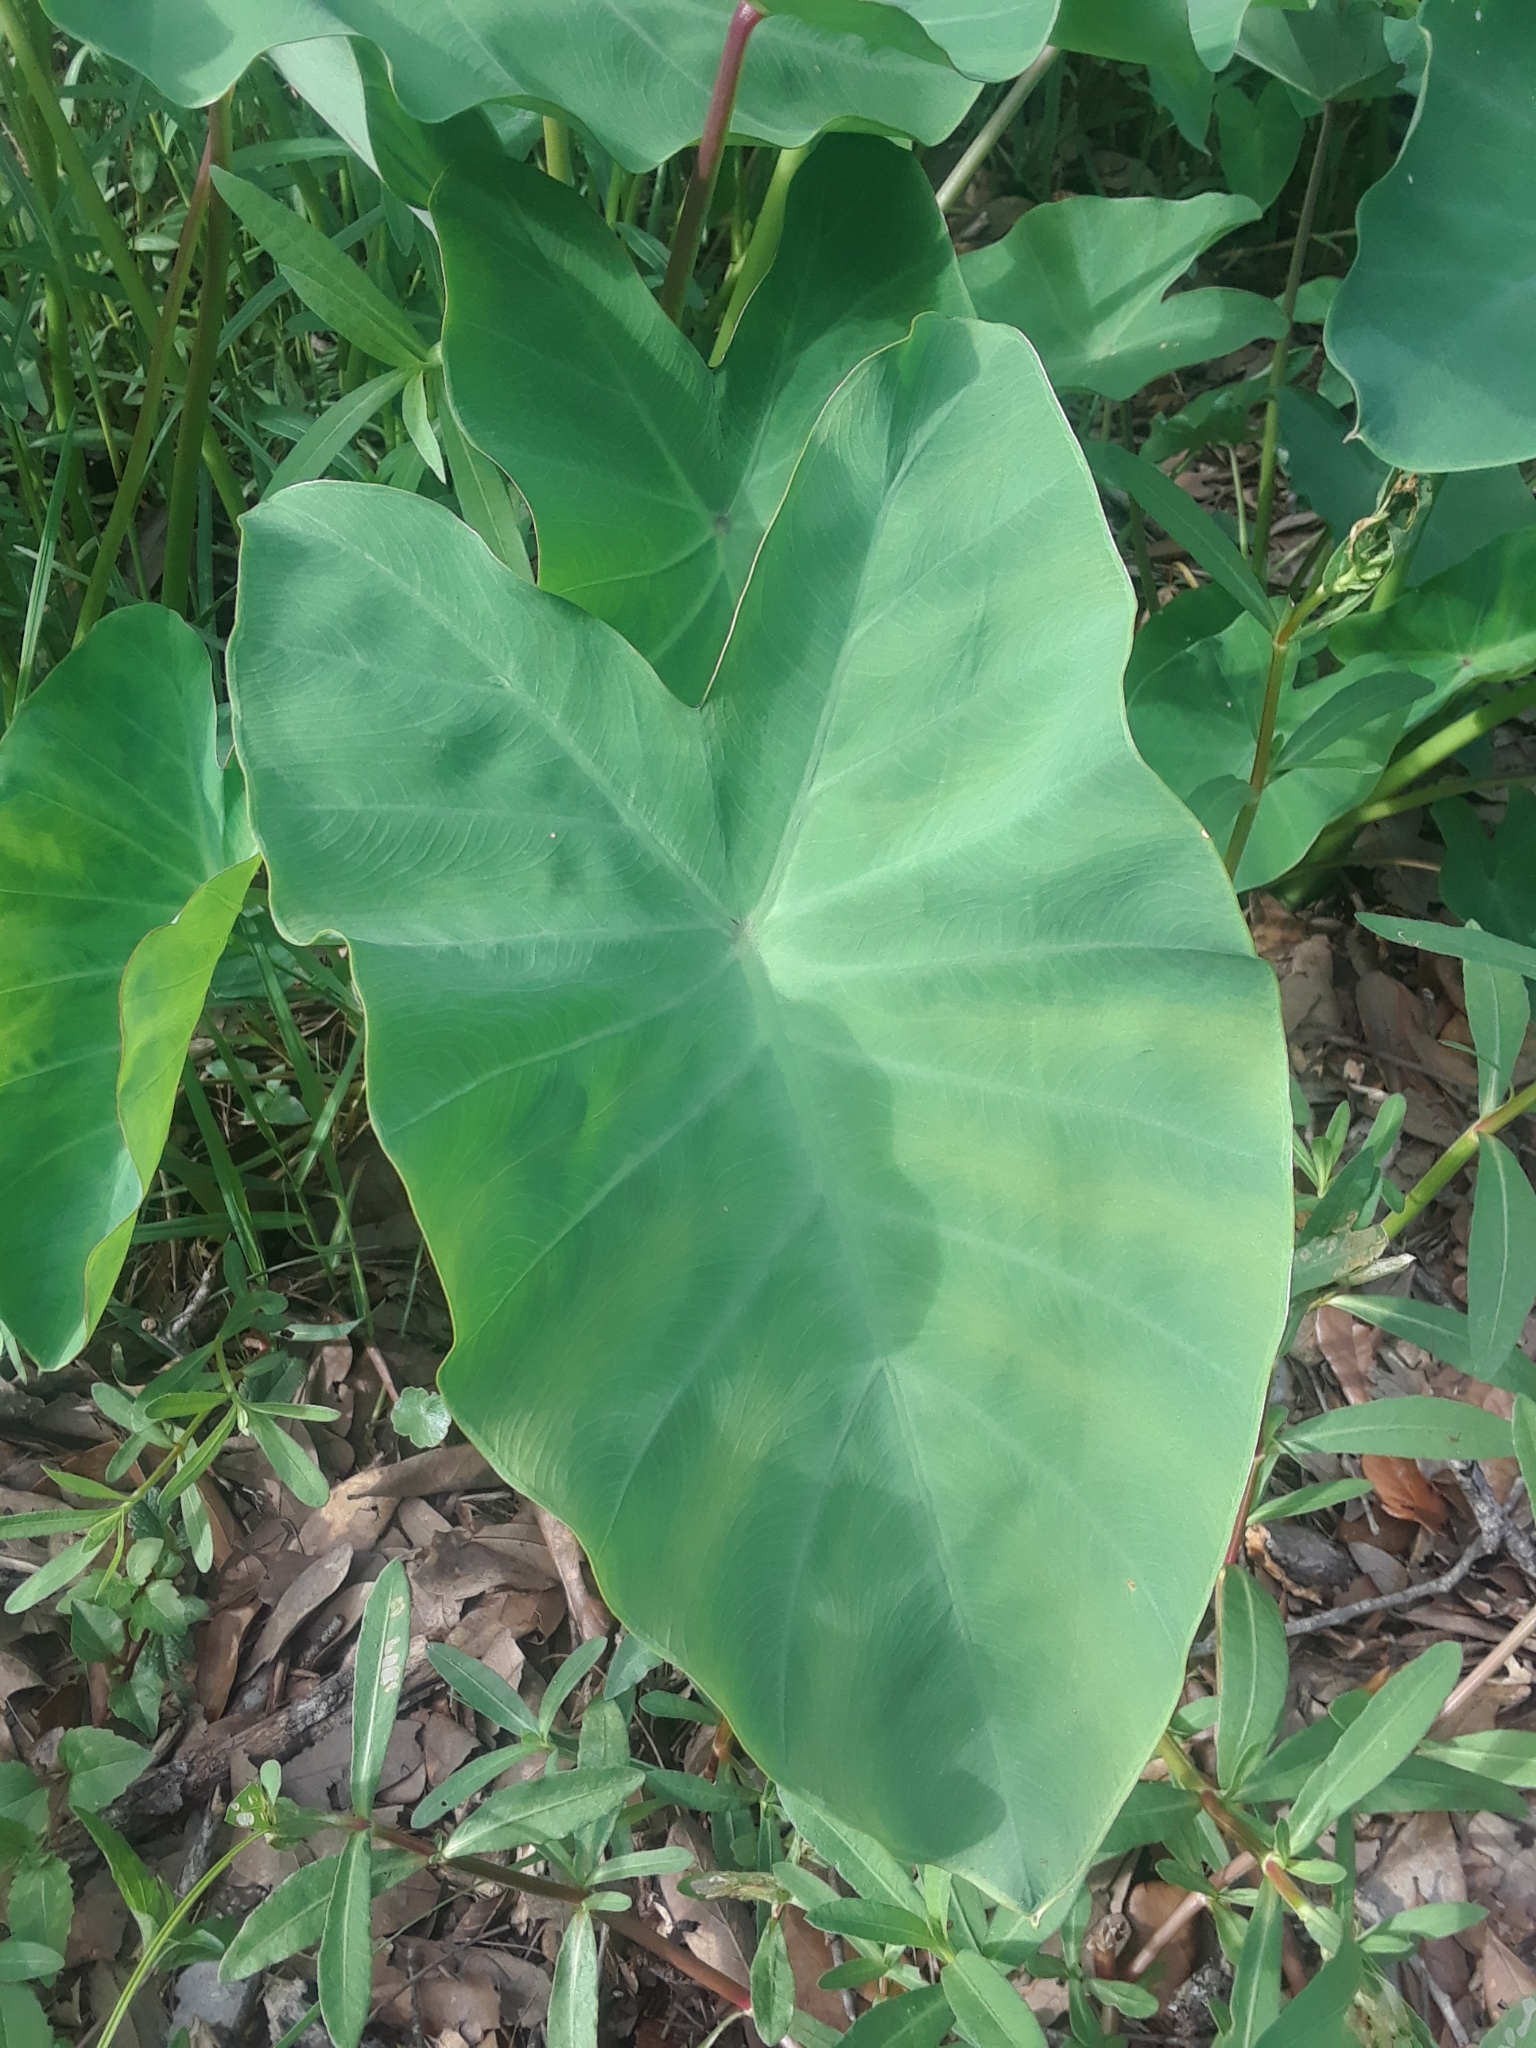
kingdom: Plantae
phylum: Tracheophyta
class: Liliopsida
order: Alismatales
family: Araceae
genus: Colocasia
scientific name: Colocasia esculenta
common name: Taro
